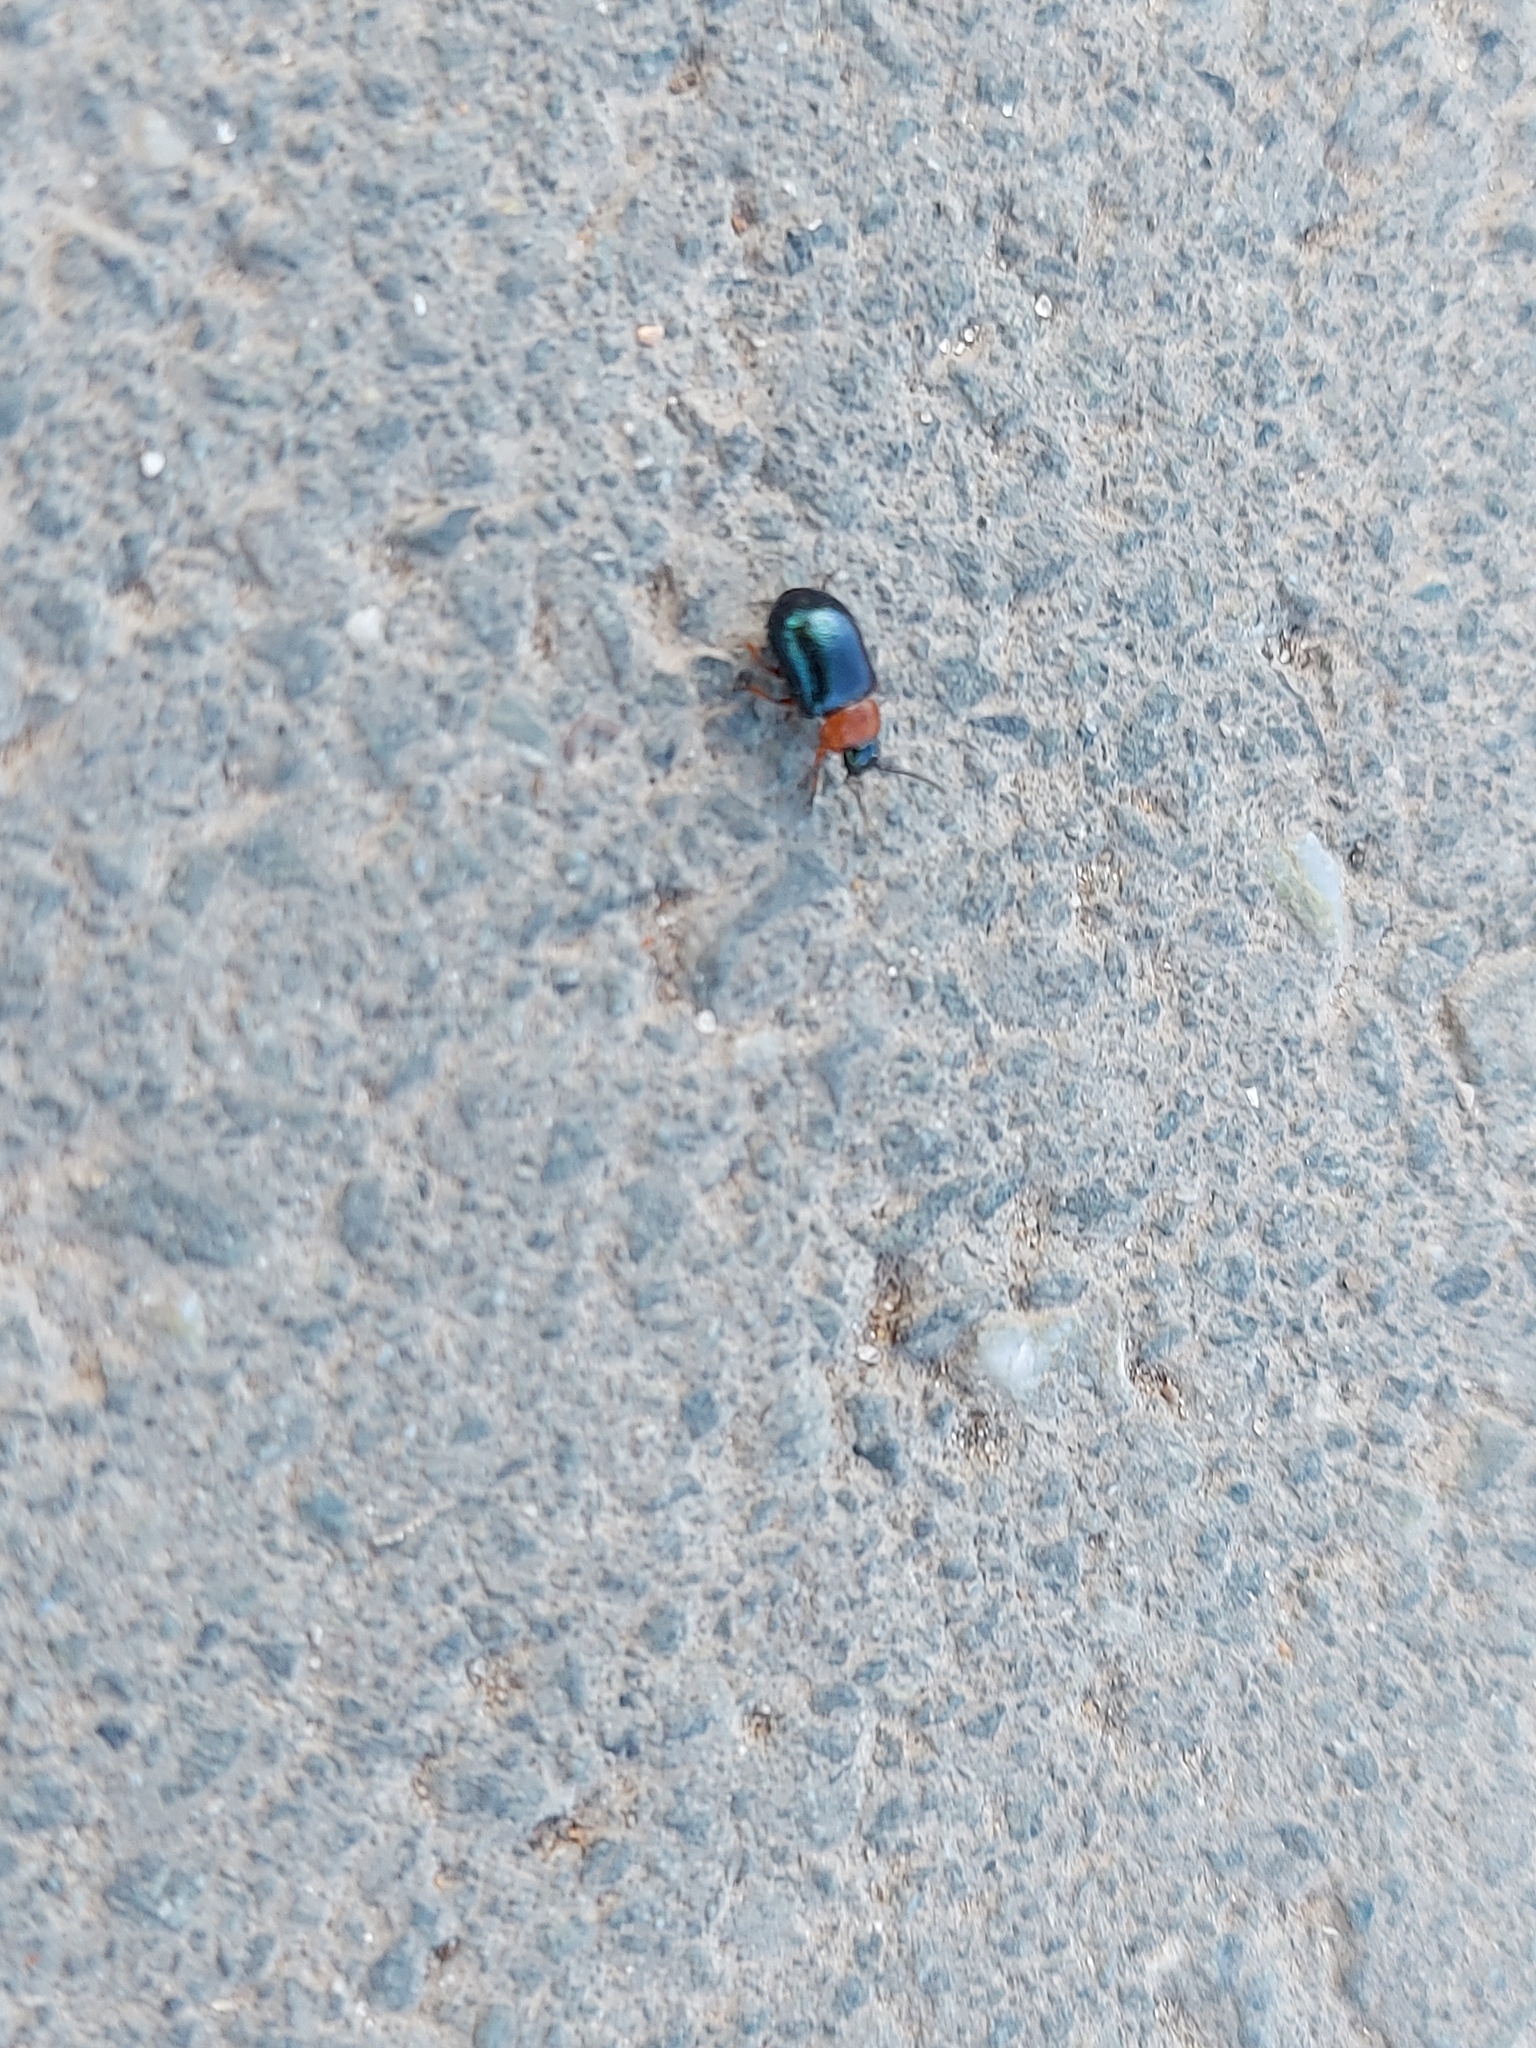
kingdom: Animalia
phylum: Arthropoda
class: Insecta
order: Coleoptera
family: Chrysomelidae
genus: Gastrophysa
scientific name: Gastrophysa polygoni
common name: Knotweed leaf beetle
